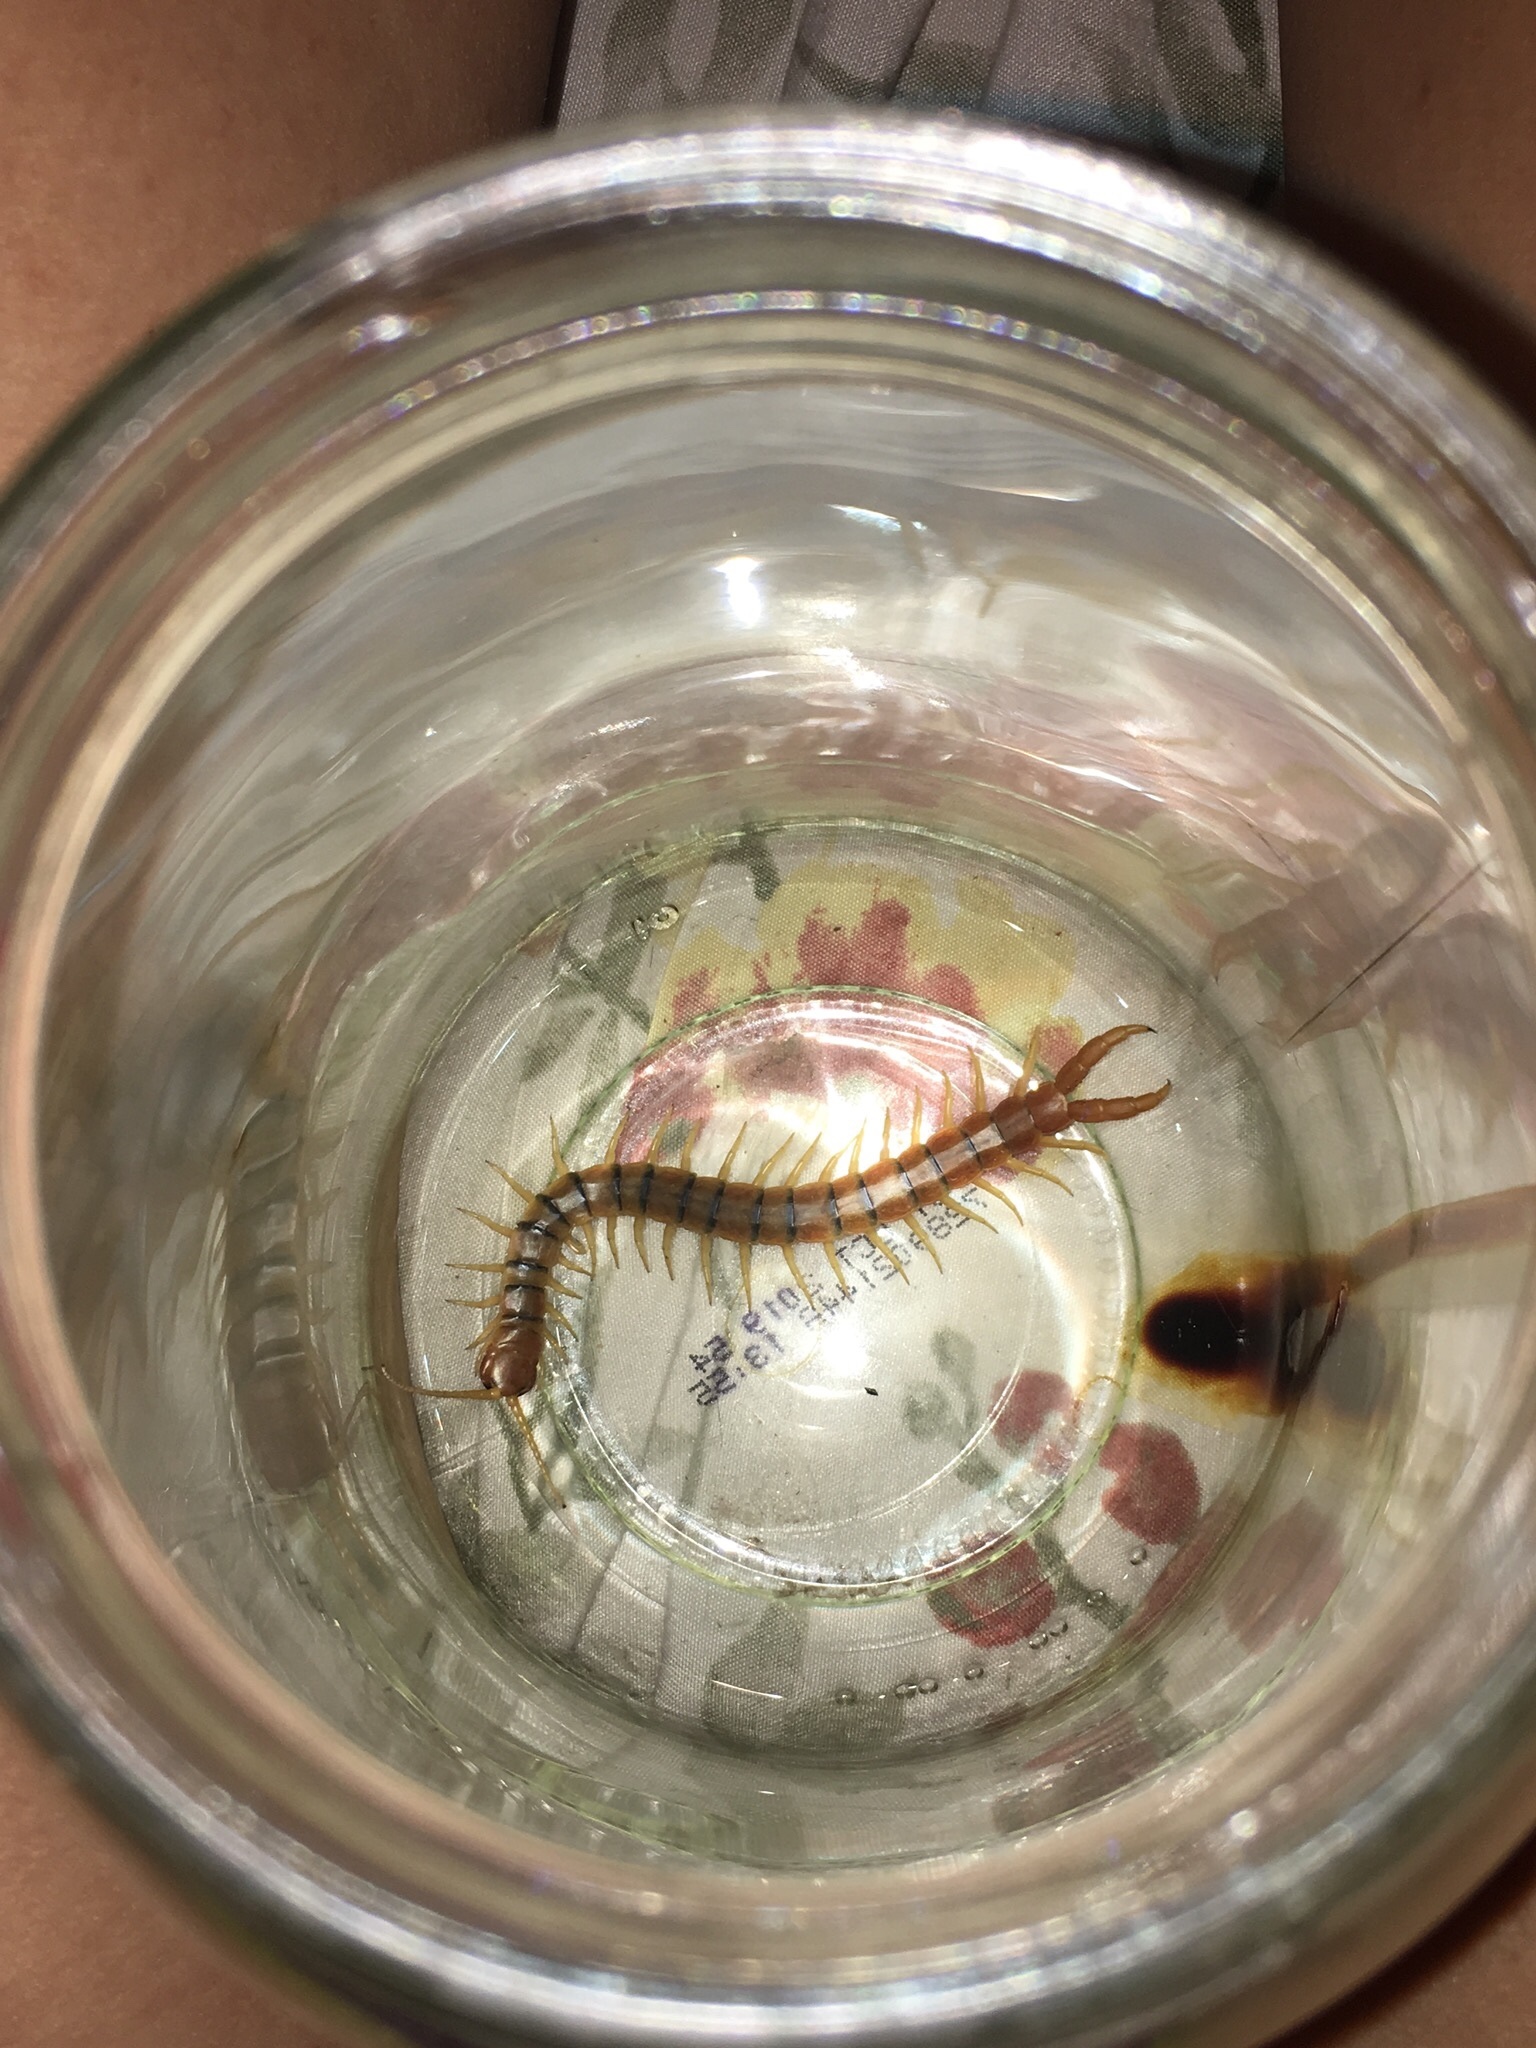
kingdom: Animalia
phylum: Arthropoda
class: Chilopoda
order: Scolopendromorpha
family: Scolopendridae
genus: Scolopendra
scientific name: Scolopendra polymorpha
